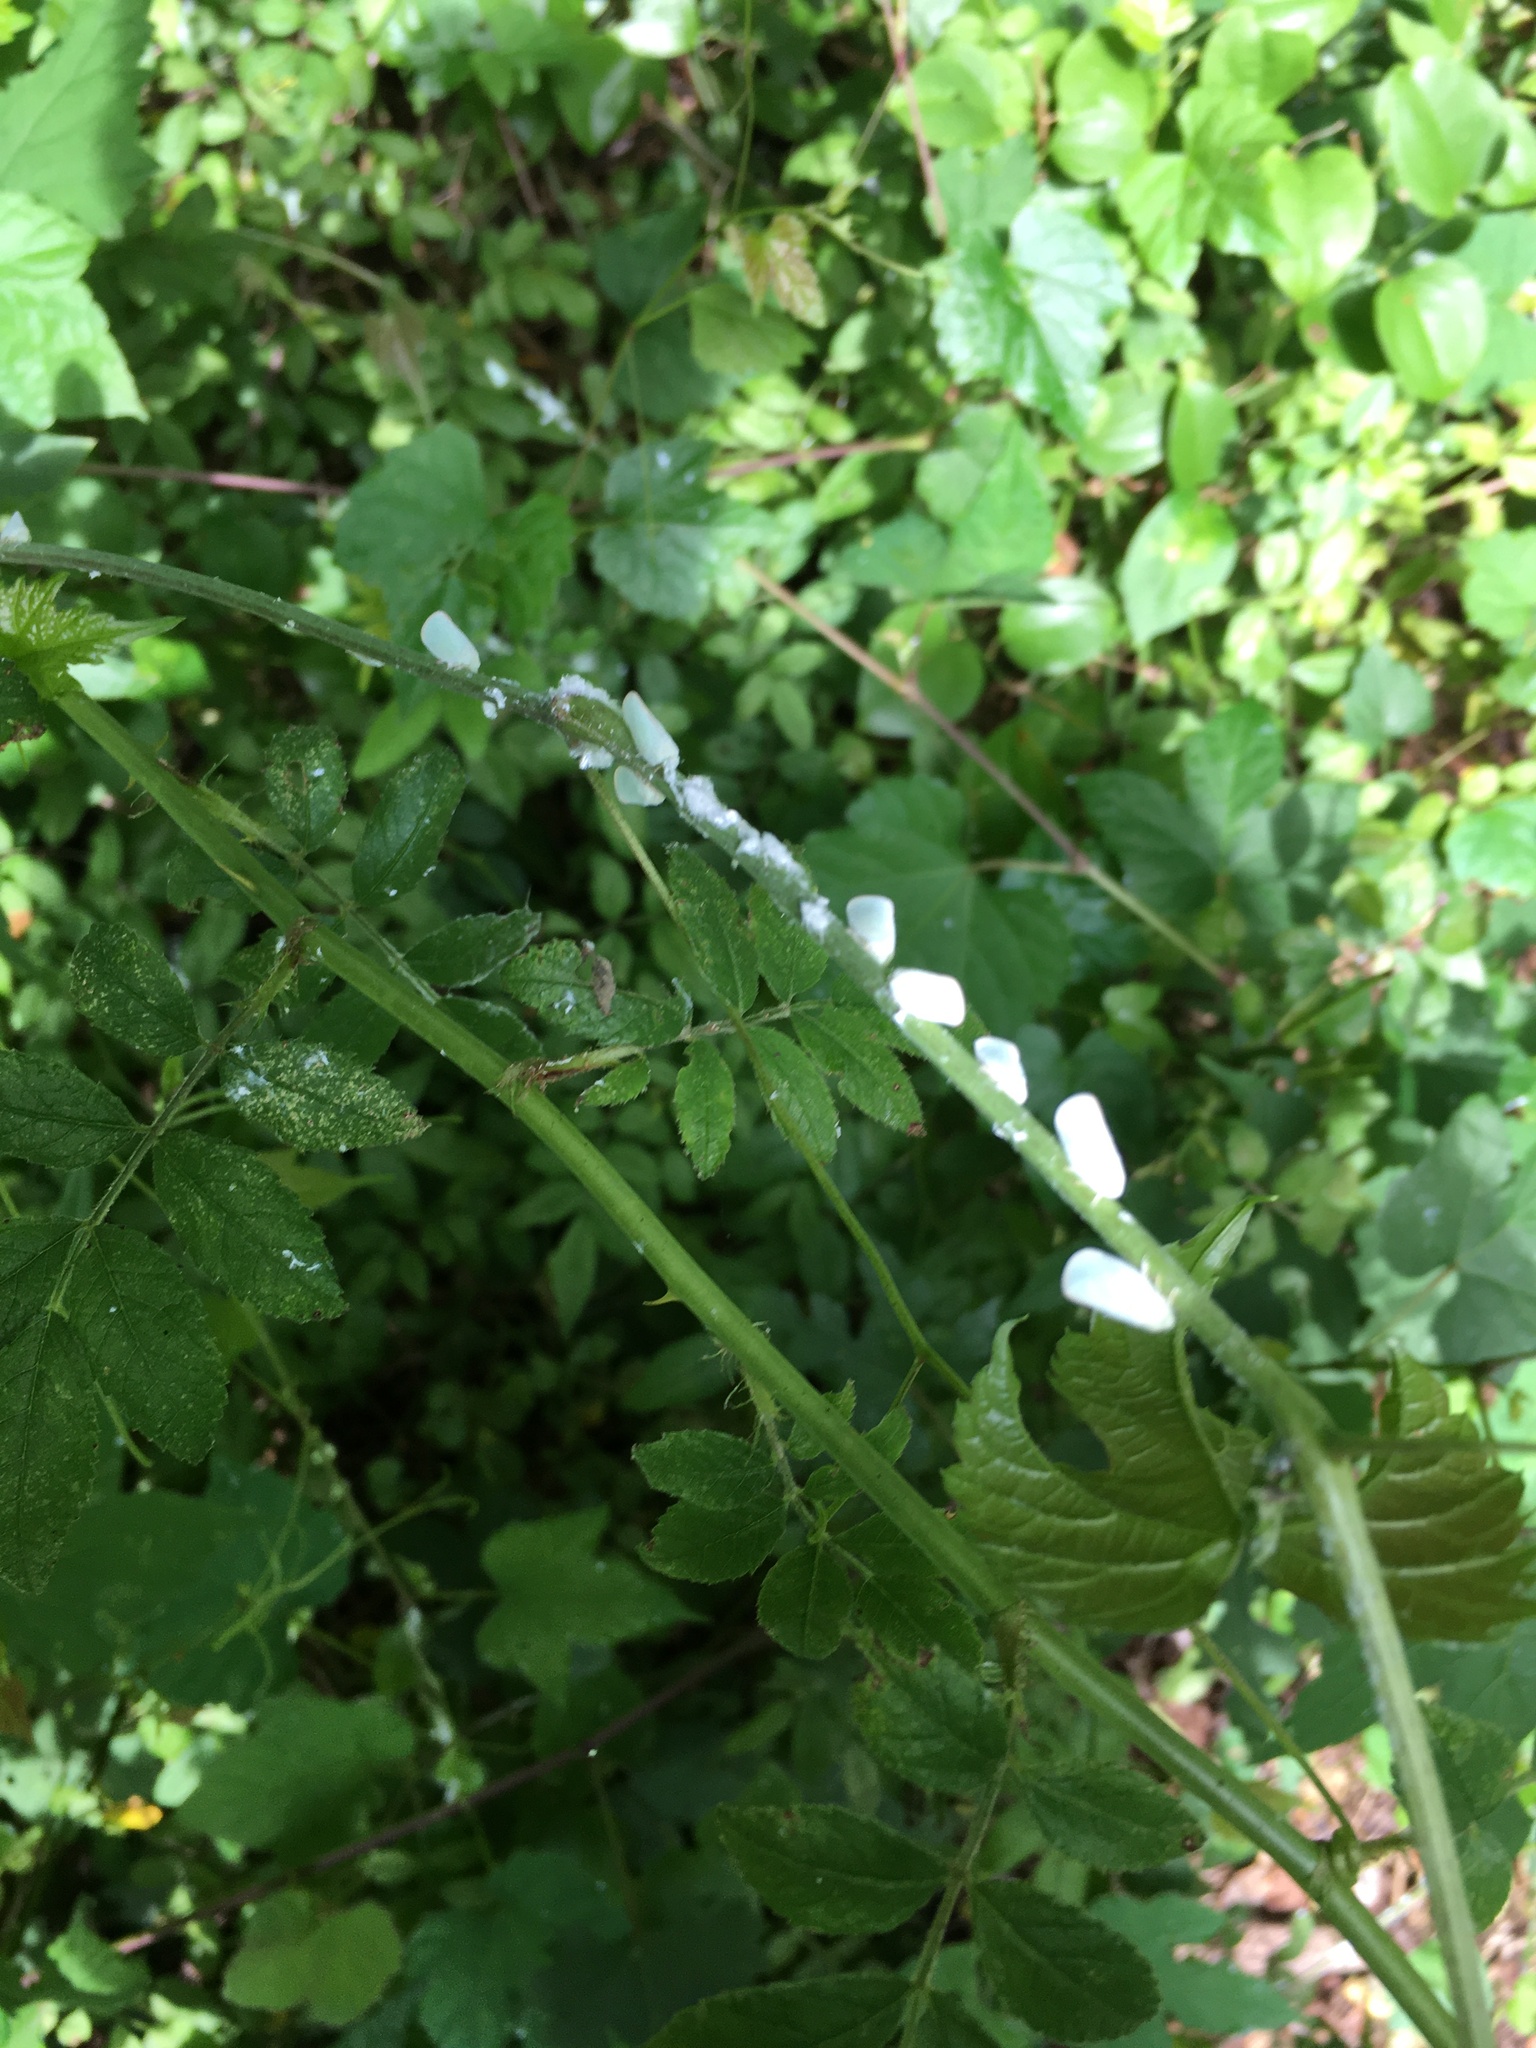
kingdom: Animalia
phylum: Arthropoda
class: Insecta
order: Hemiptera
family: Flatidae
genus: Ormenoides
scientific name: Ormenoides venusta
